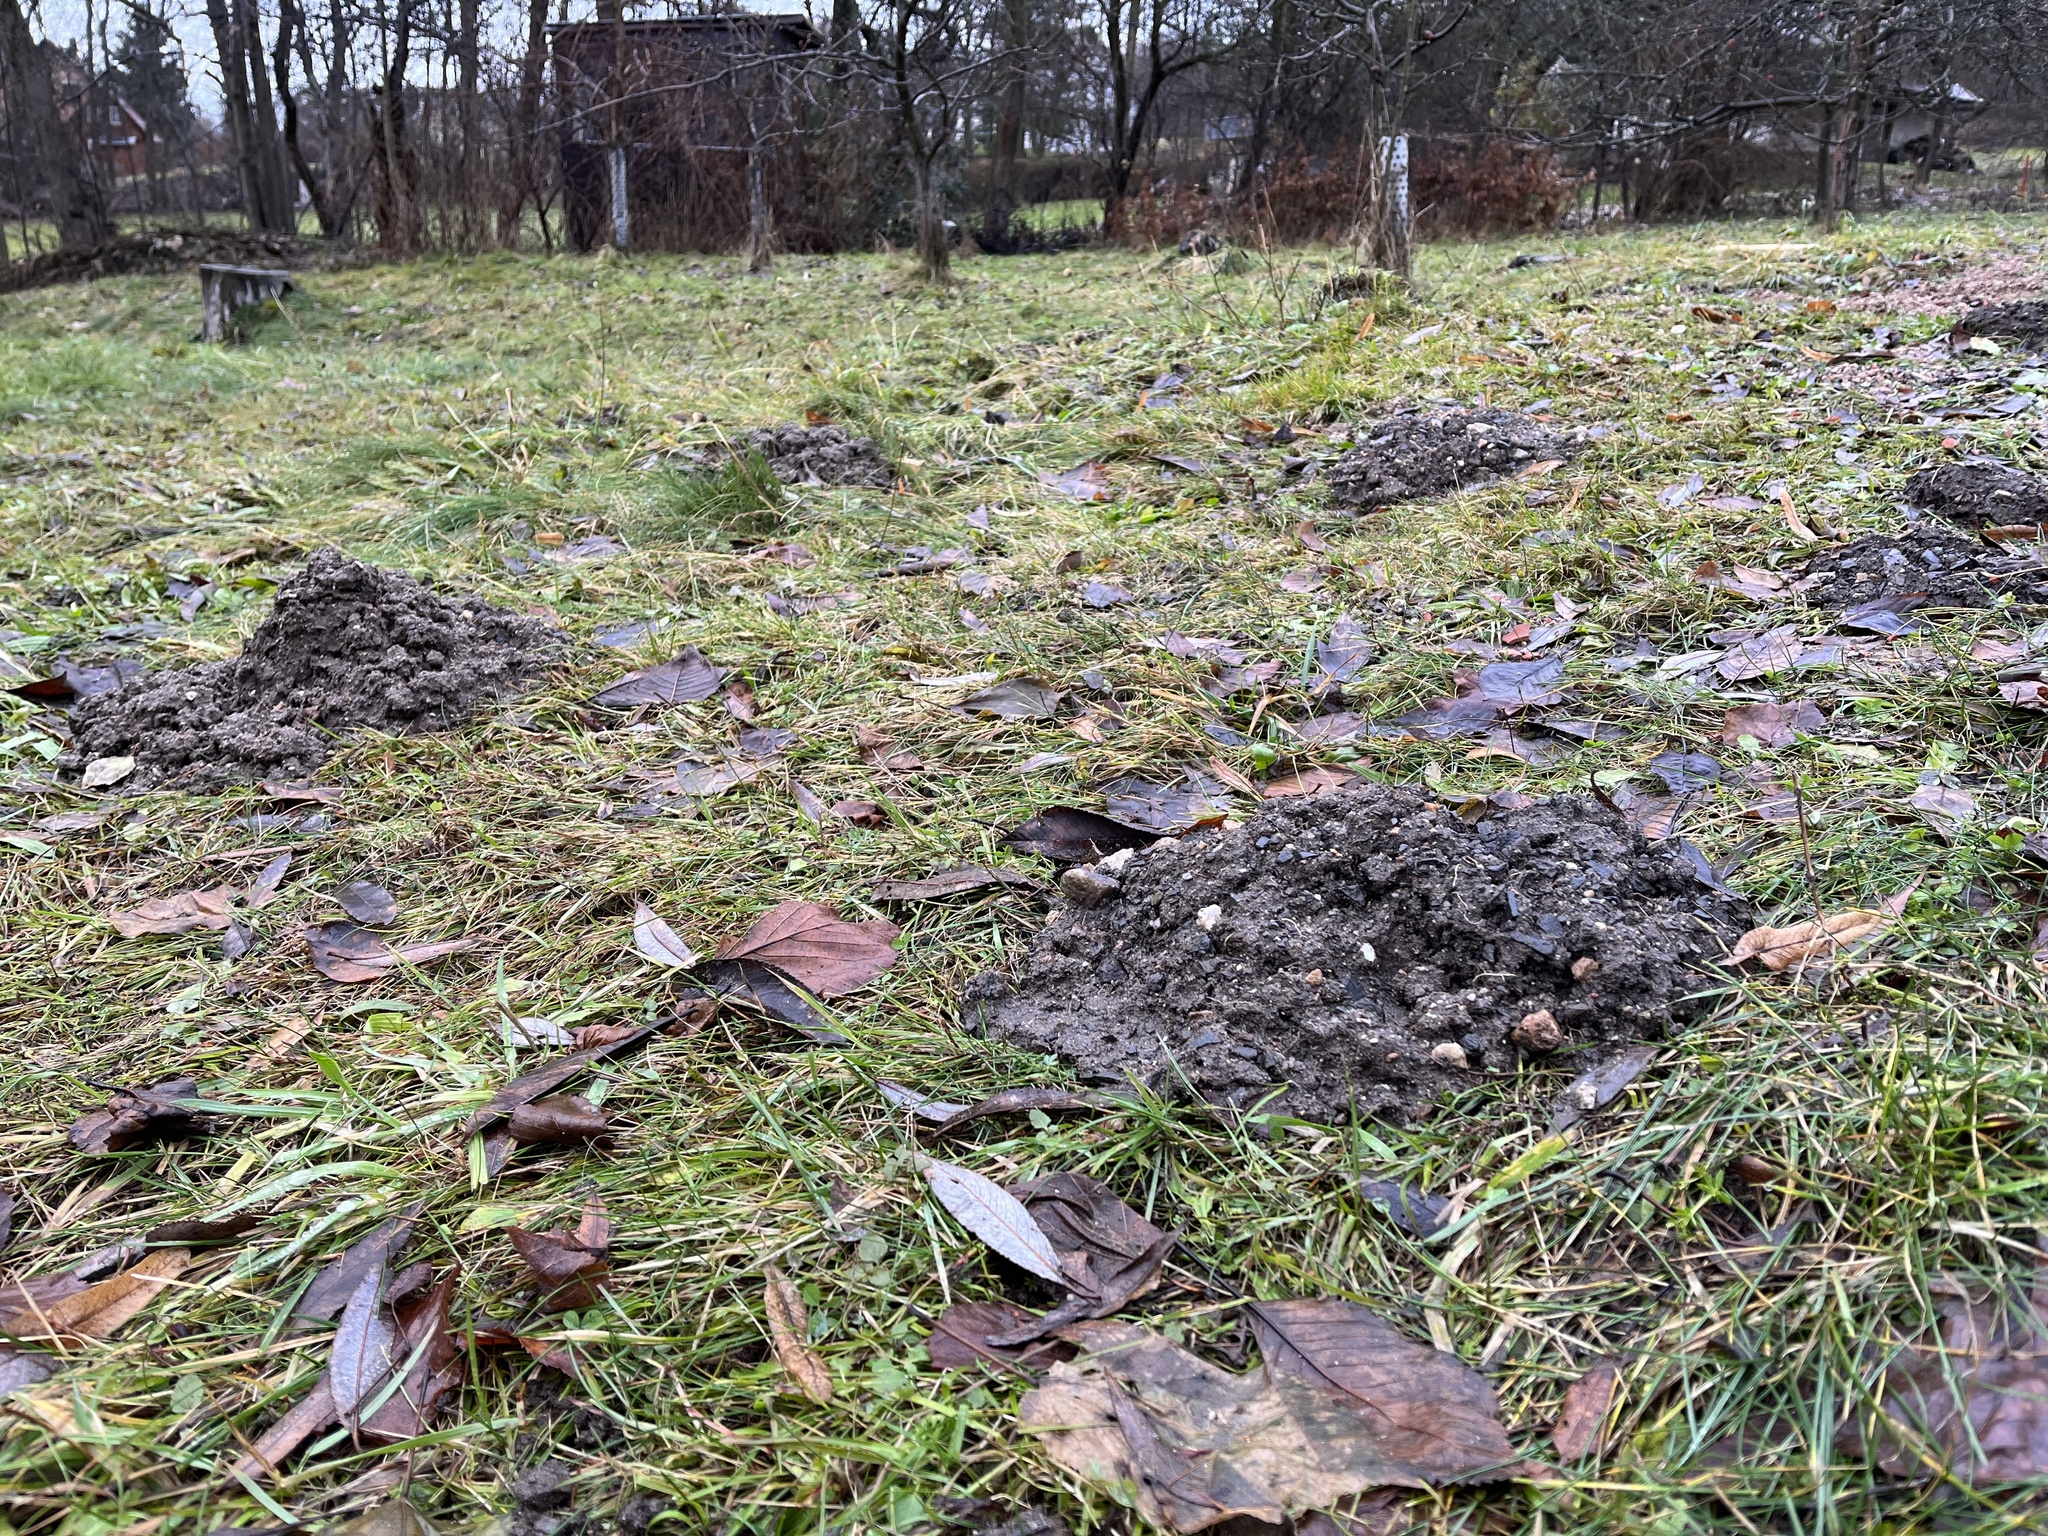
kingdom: Animalia
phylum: Chordata
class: Mammalia
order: Soricomorpha
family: Talpidae
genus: Talpa
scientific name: Talpa europaea
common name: European mole
